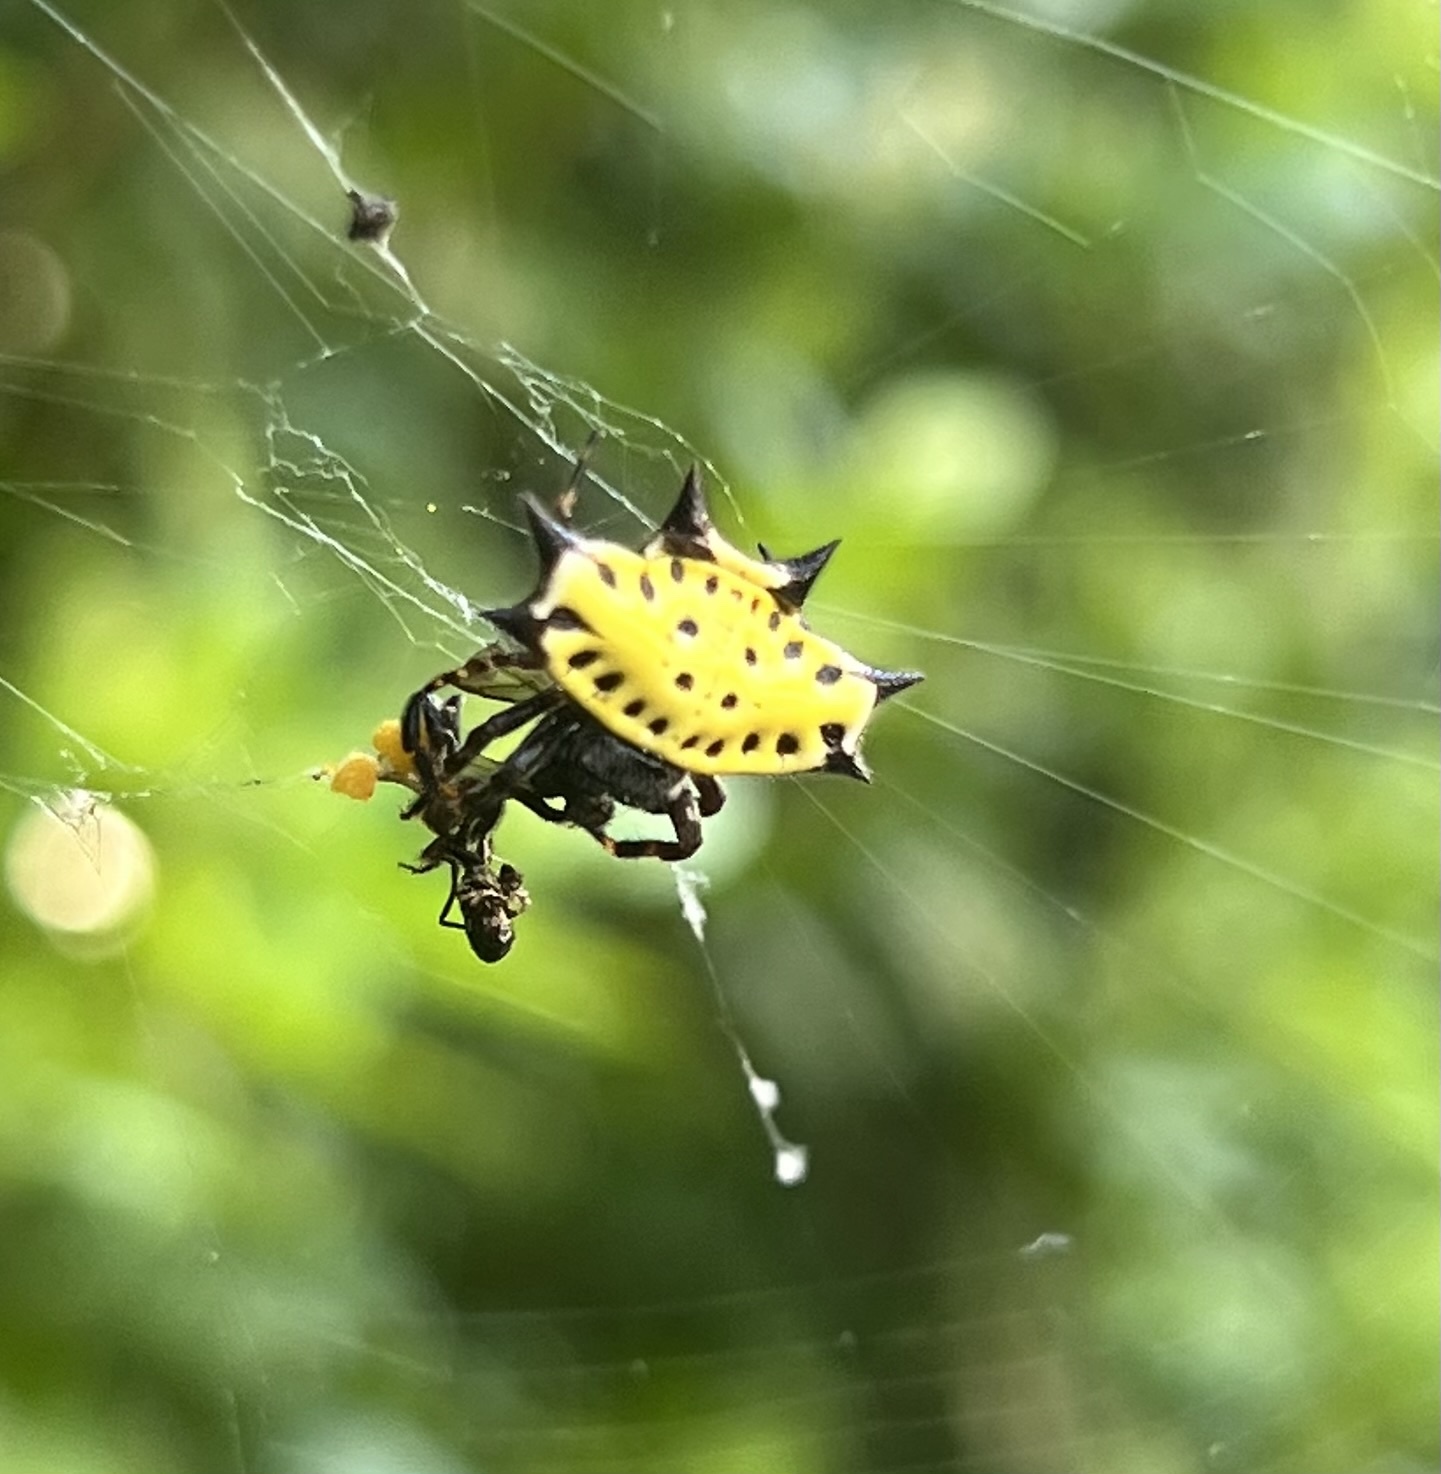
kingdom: Animalia
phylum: Arthropoda
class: Arachnida
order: Araneae
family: Araneidae
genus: Gasteracantha
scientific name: Gasteracantha cancriformis
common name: Orb weavers
